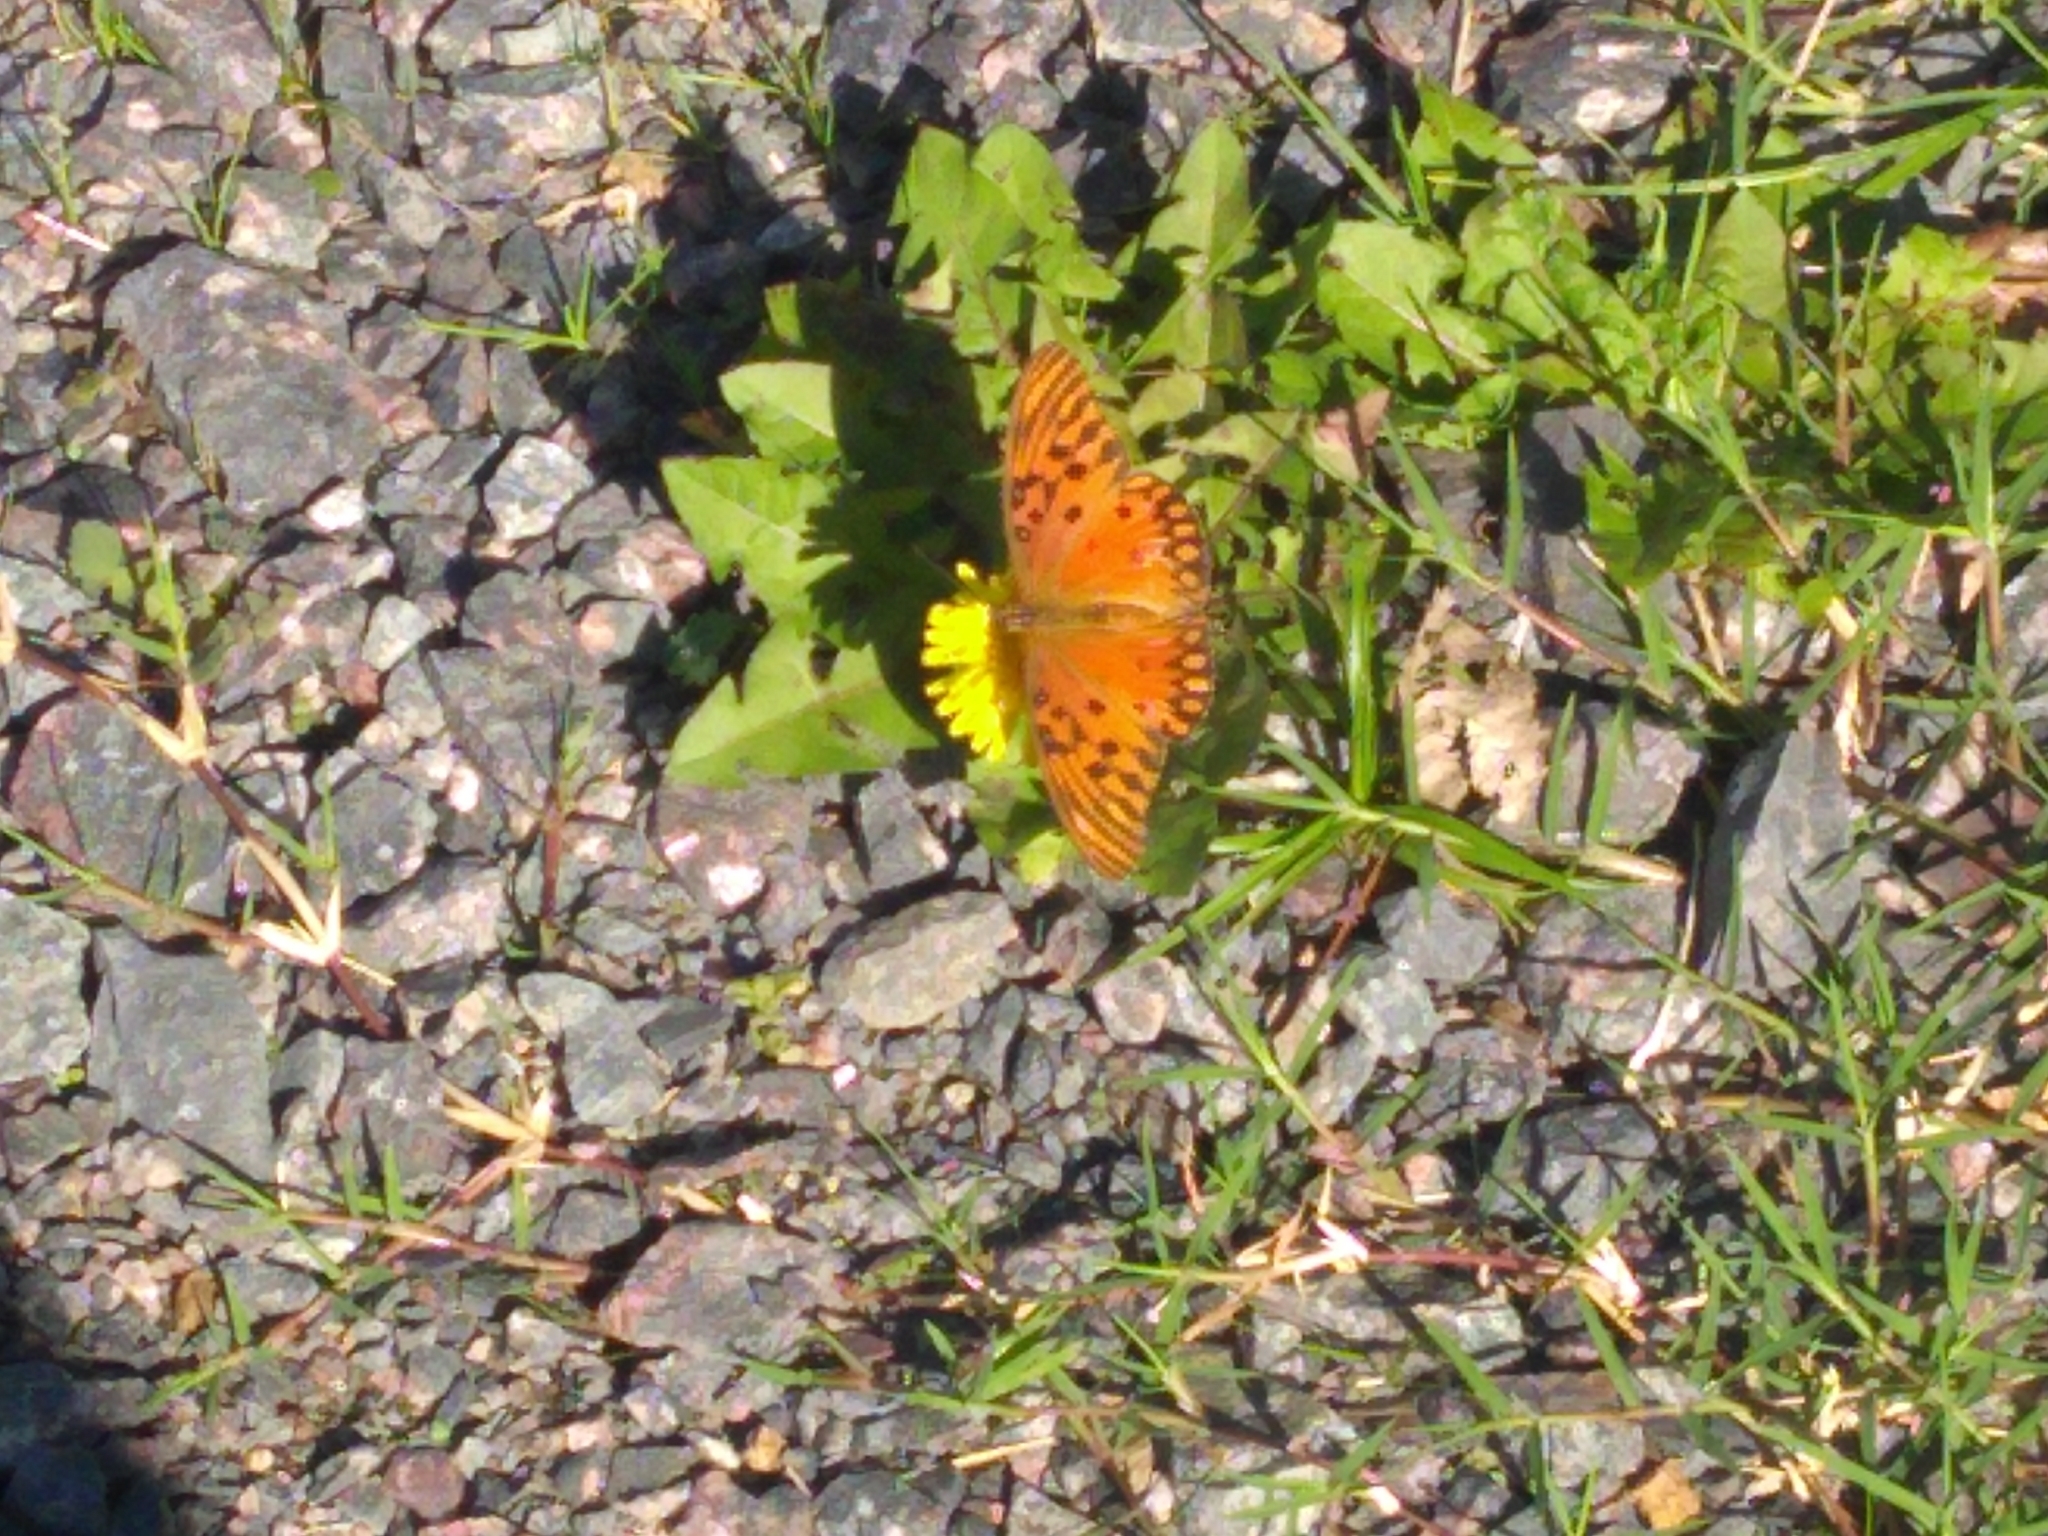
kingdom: Animalia
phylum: Arthropoda
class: Insecta
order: Lepidoptera
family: Nymphalidae
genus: Dione
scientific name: Dione vanillae
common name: Gulf fritillary
